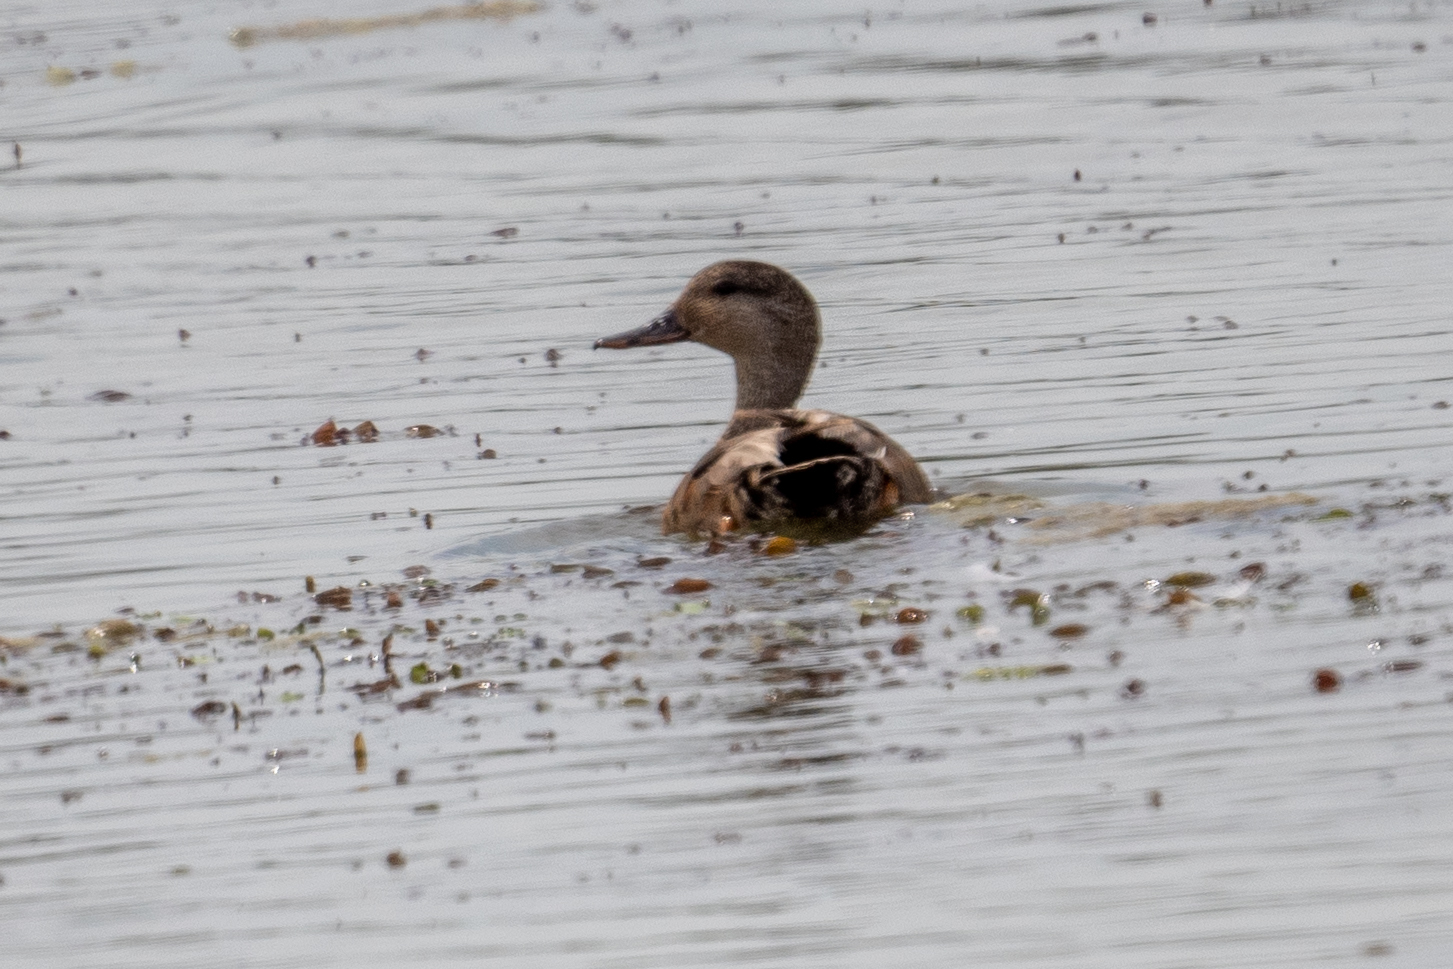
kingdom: Animalia
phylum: Chordata
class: Aves
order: Anseriformes
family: Anatidae
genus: Mareca
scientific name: Mareca strepera
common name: Gadwall
